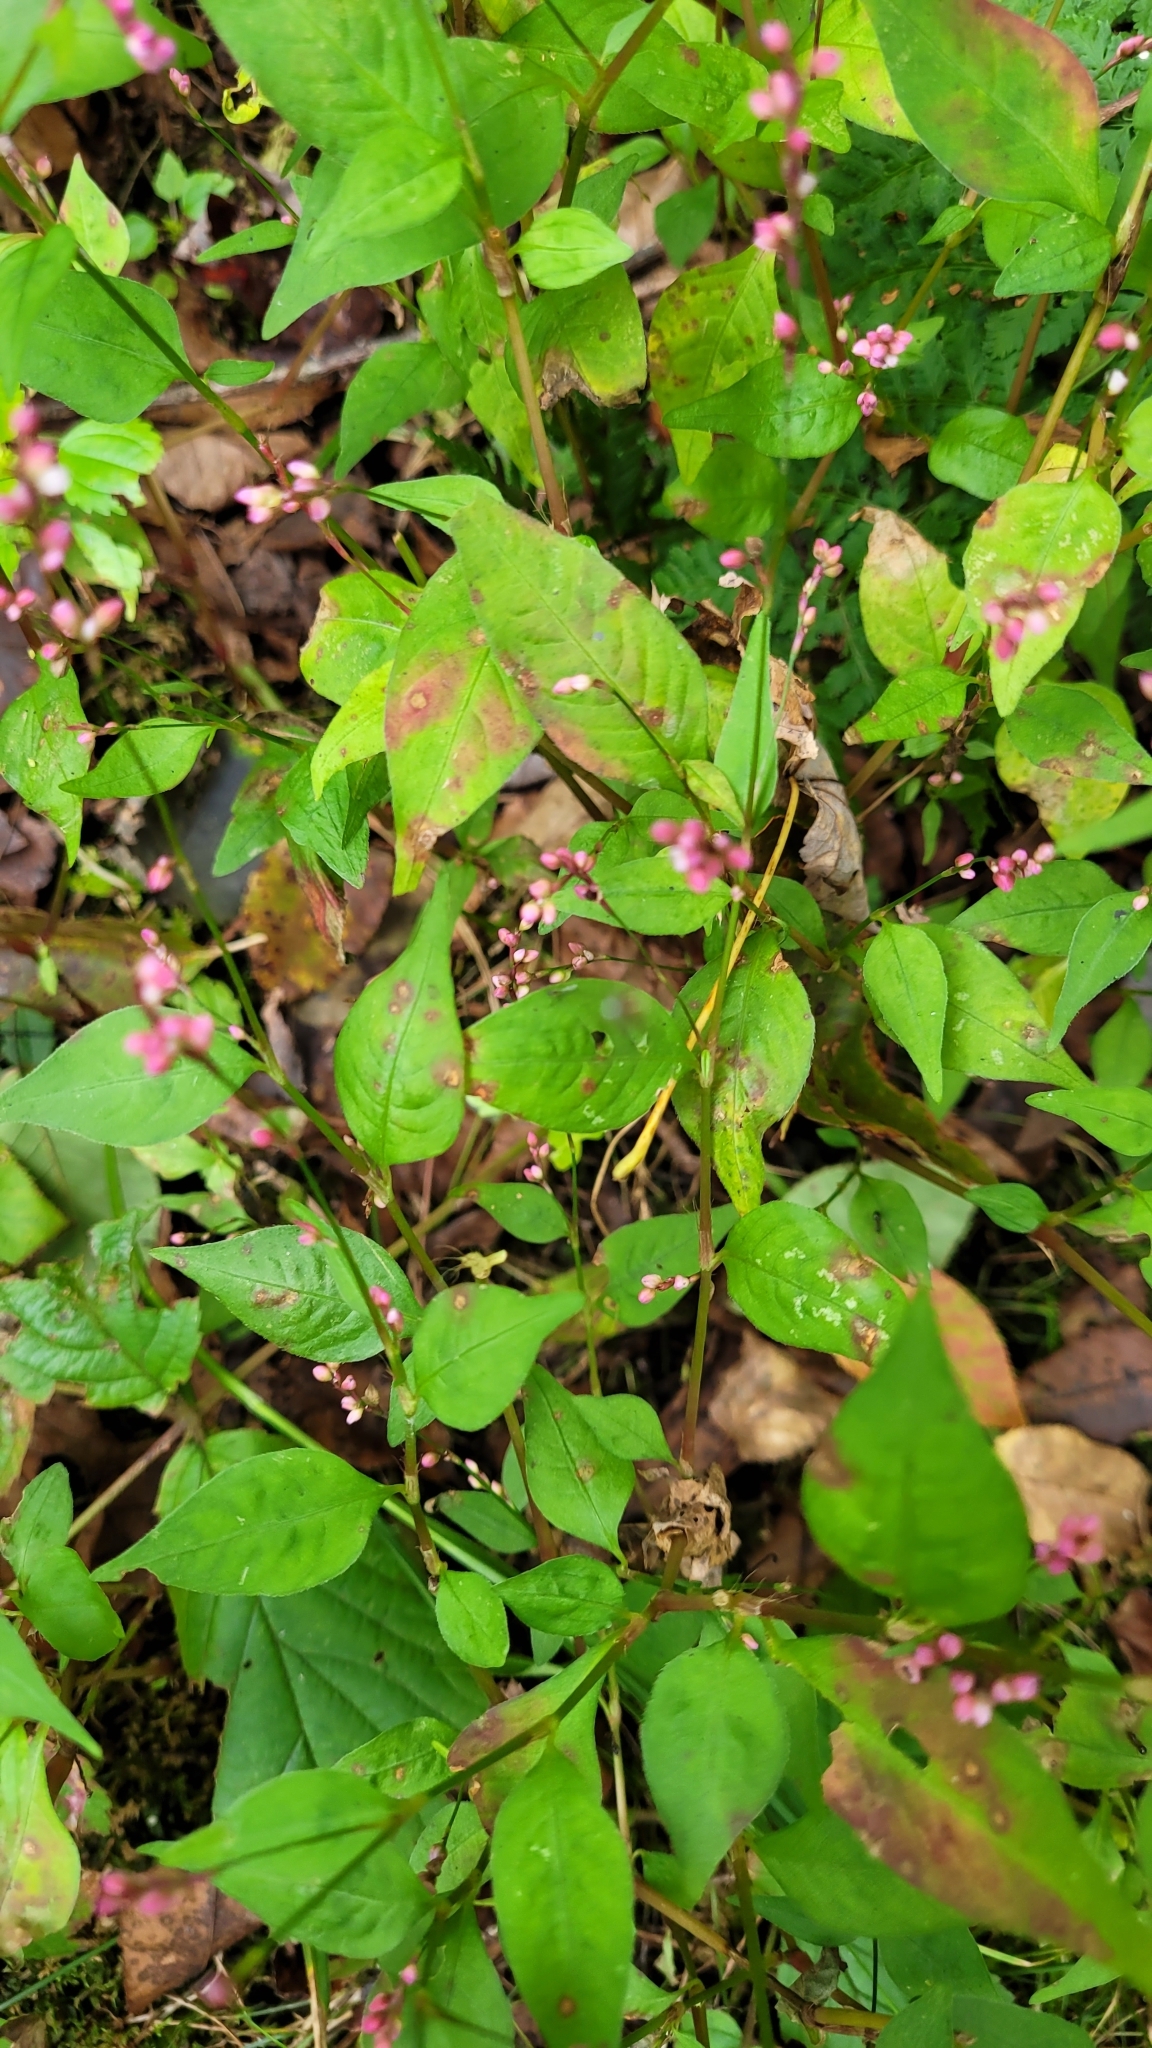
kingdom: Plantae
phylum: Tracheophyta
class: Magnoliopsida
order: Caryophyllales
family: Polygonaceae
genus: Persicaria
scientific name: Persicaria longiseta
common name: Bristly lady's-thumb
